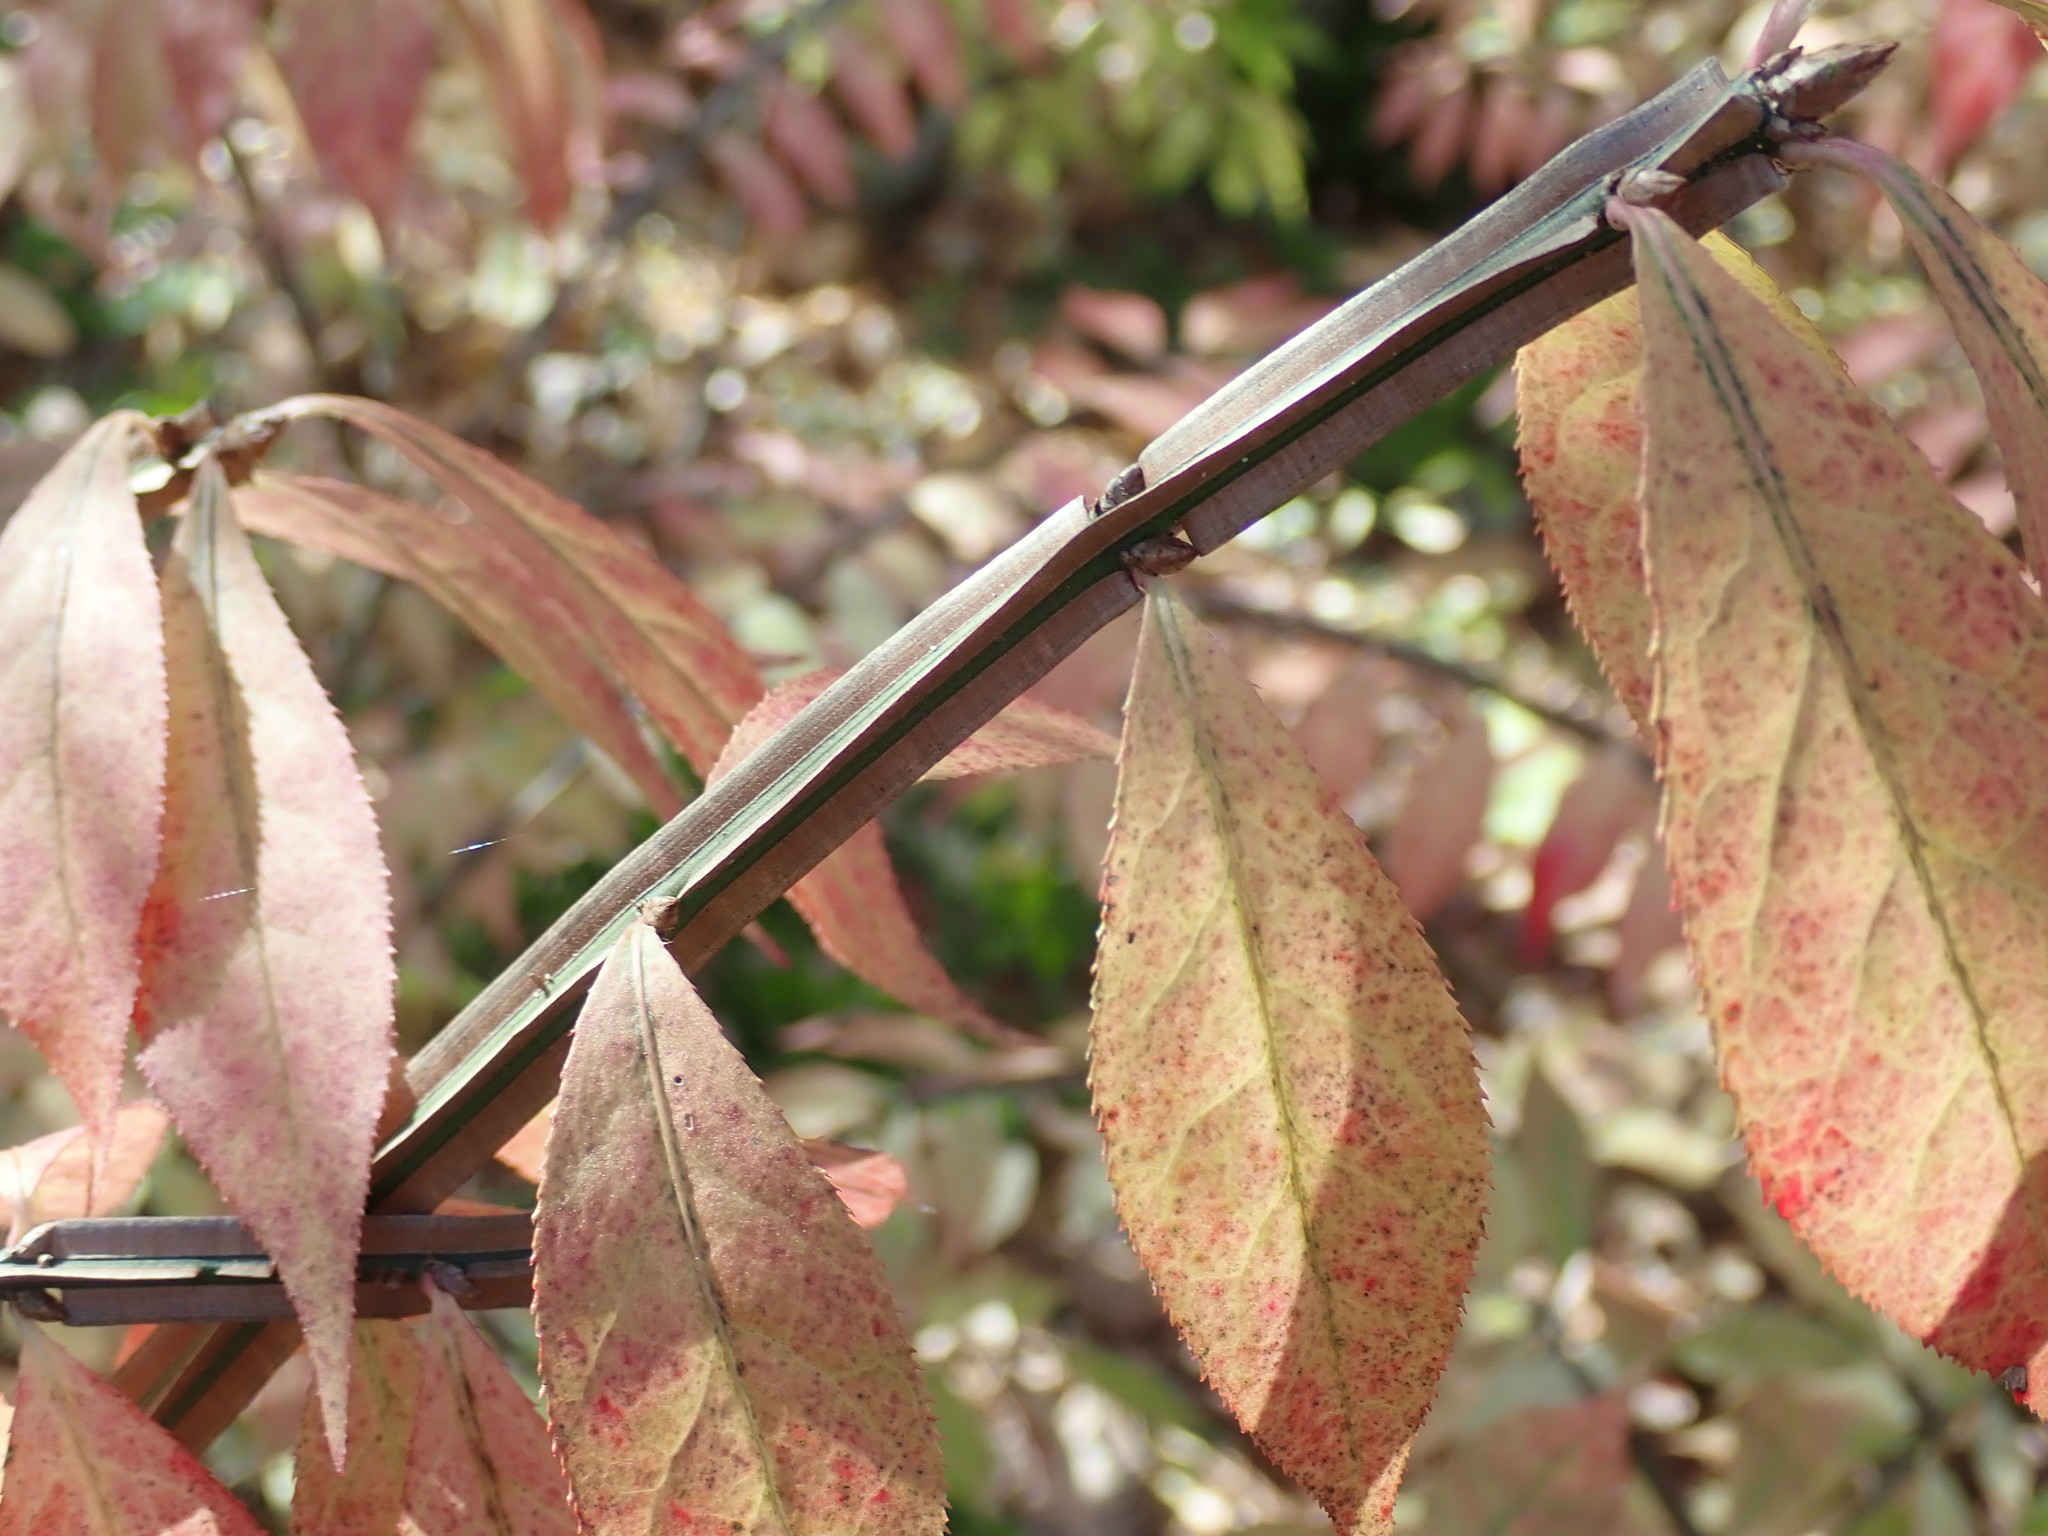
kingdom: Plantae
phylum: Tracheophyta
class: Magnoliopsida
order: Celastrales
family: Celastraceae
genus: Euonymus
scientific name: Euonymus alatus
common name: Winged euonymus
